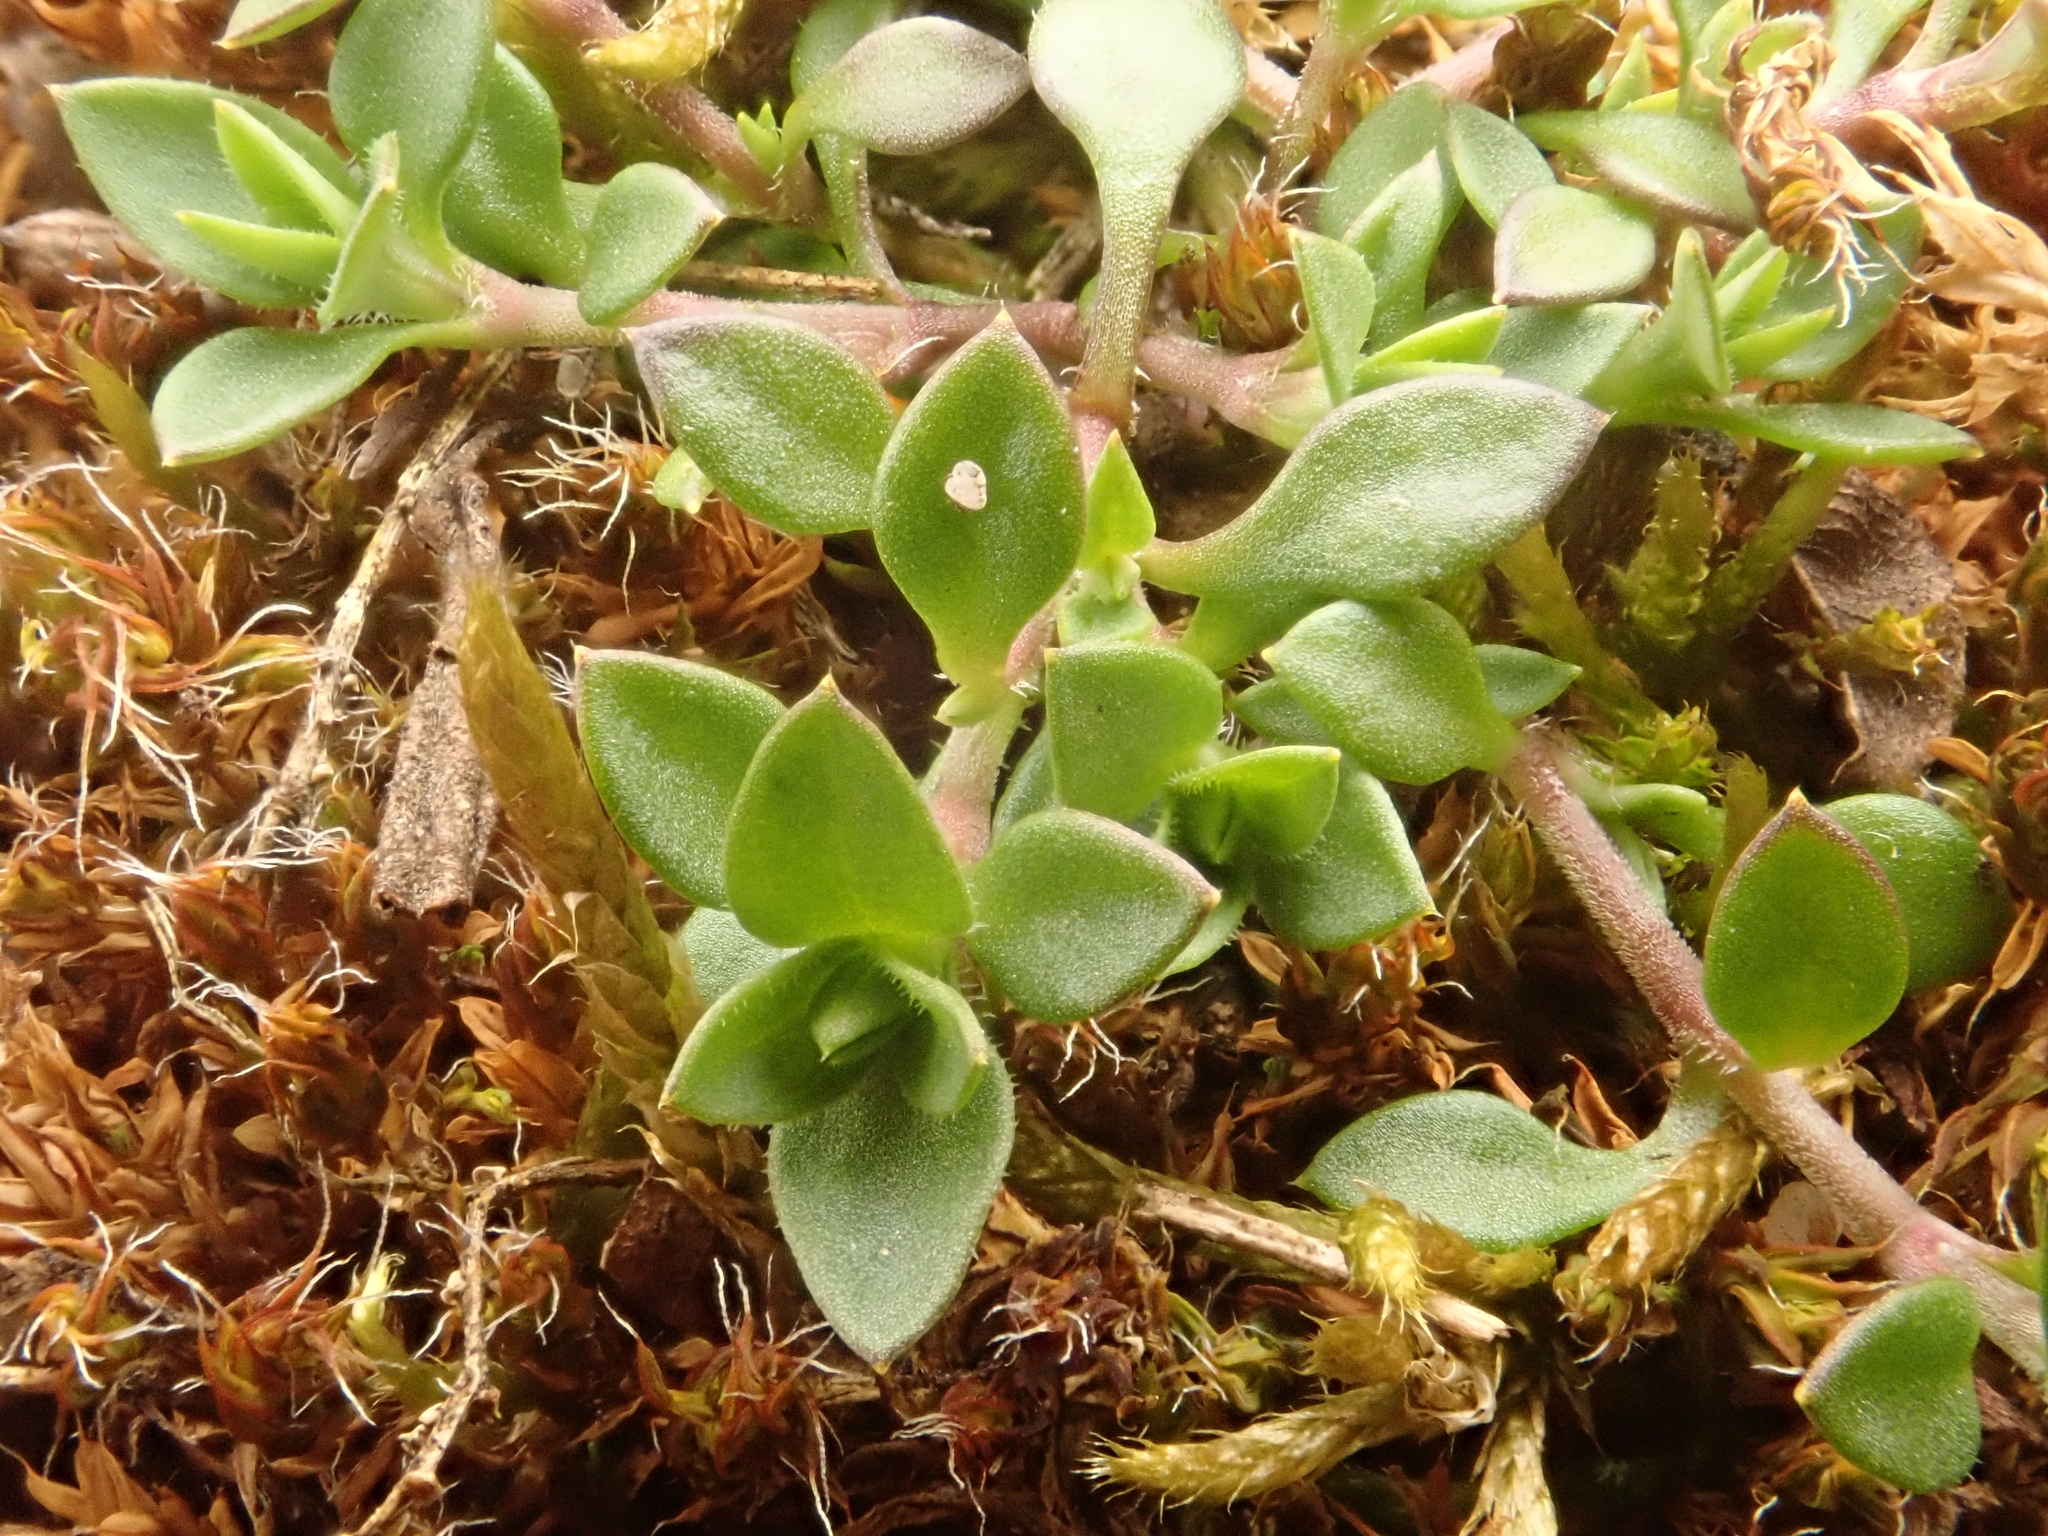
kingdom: Plantae
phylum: Tracheophyta
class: Magnoliopsida
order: Caryophyllales
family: Caryophyllaceae
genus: Arenaria
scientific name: Arenaria serpyllifolia
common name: Thyme-leaved sandwort
